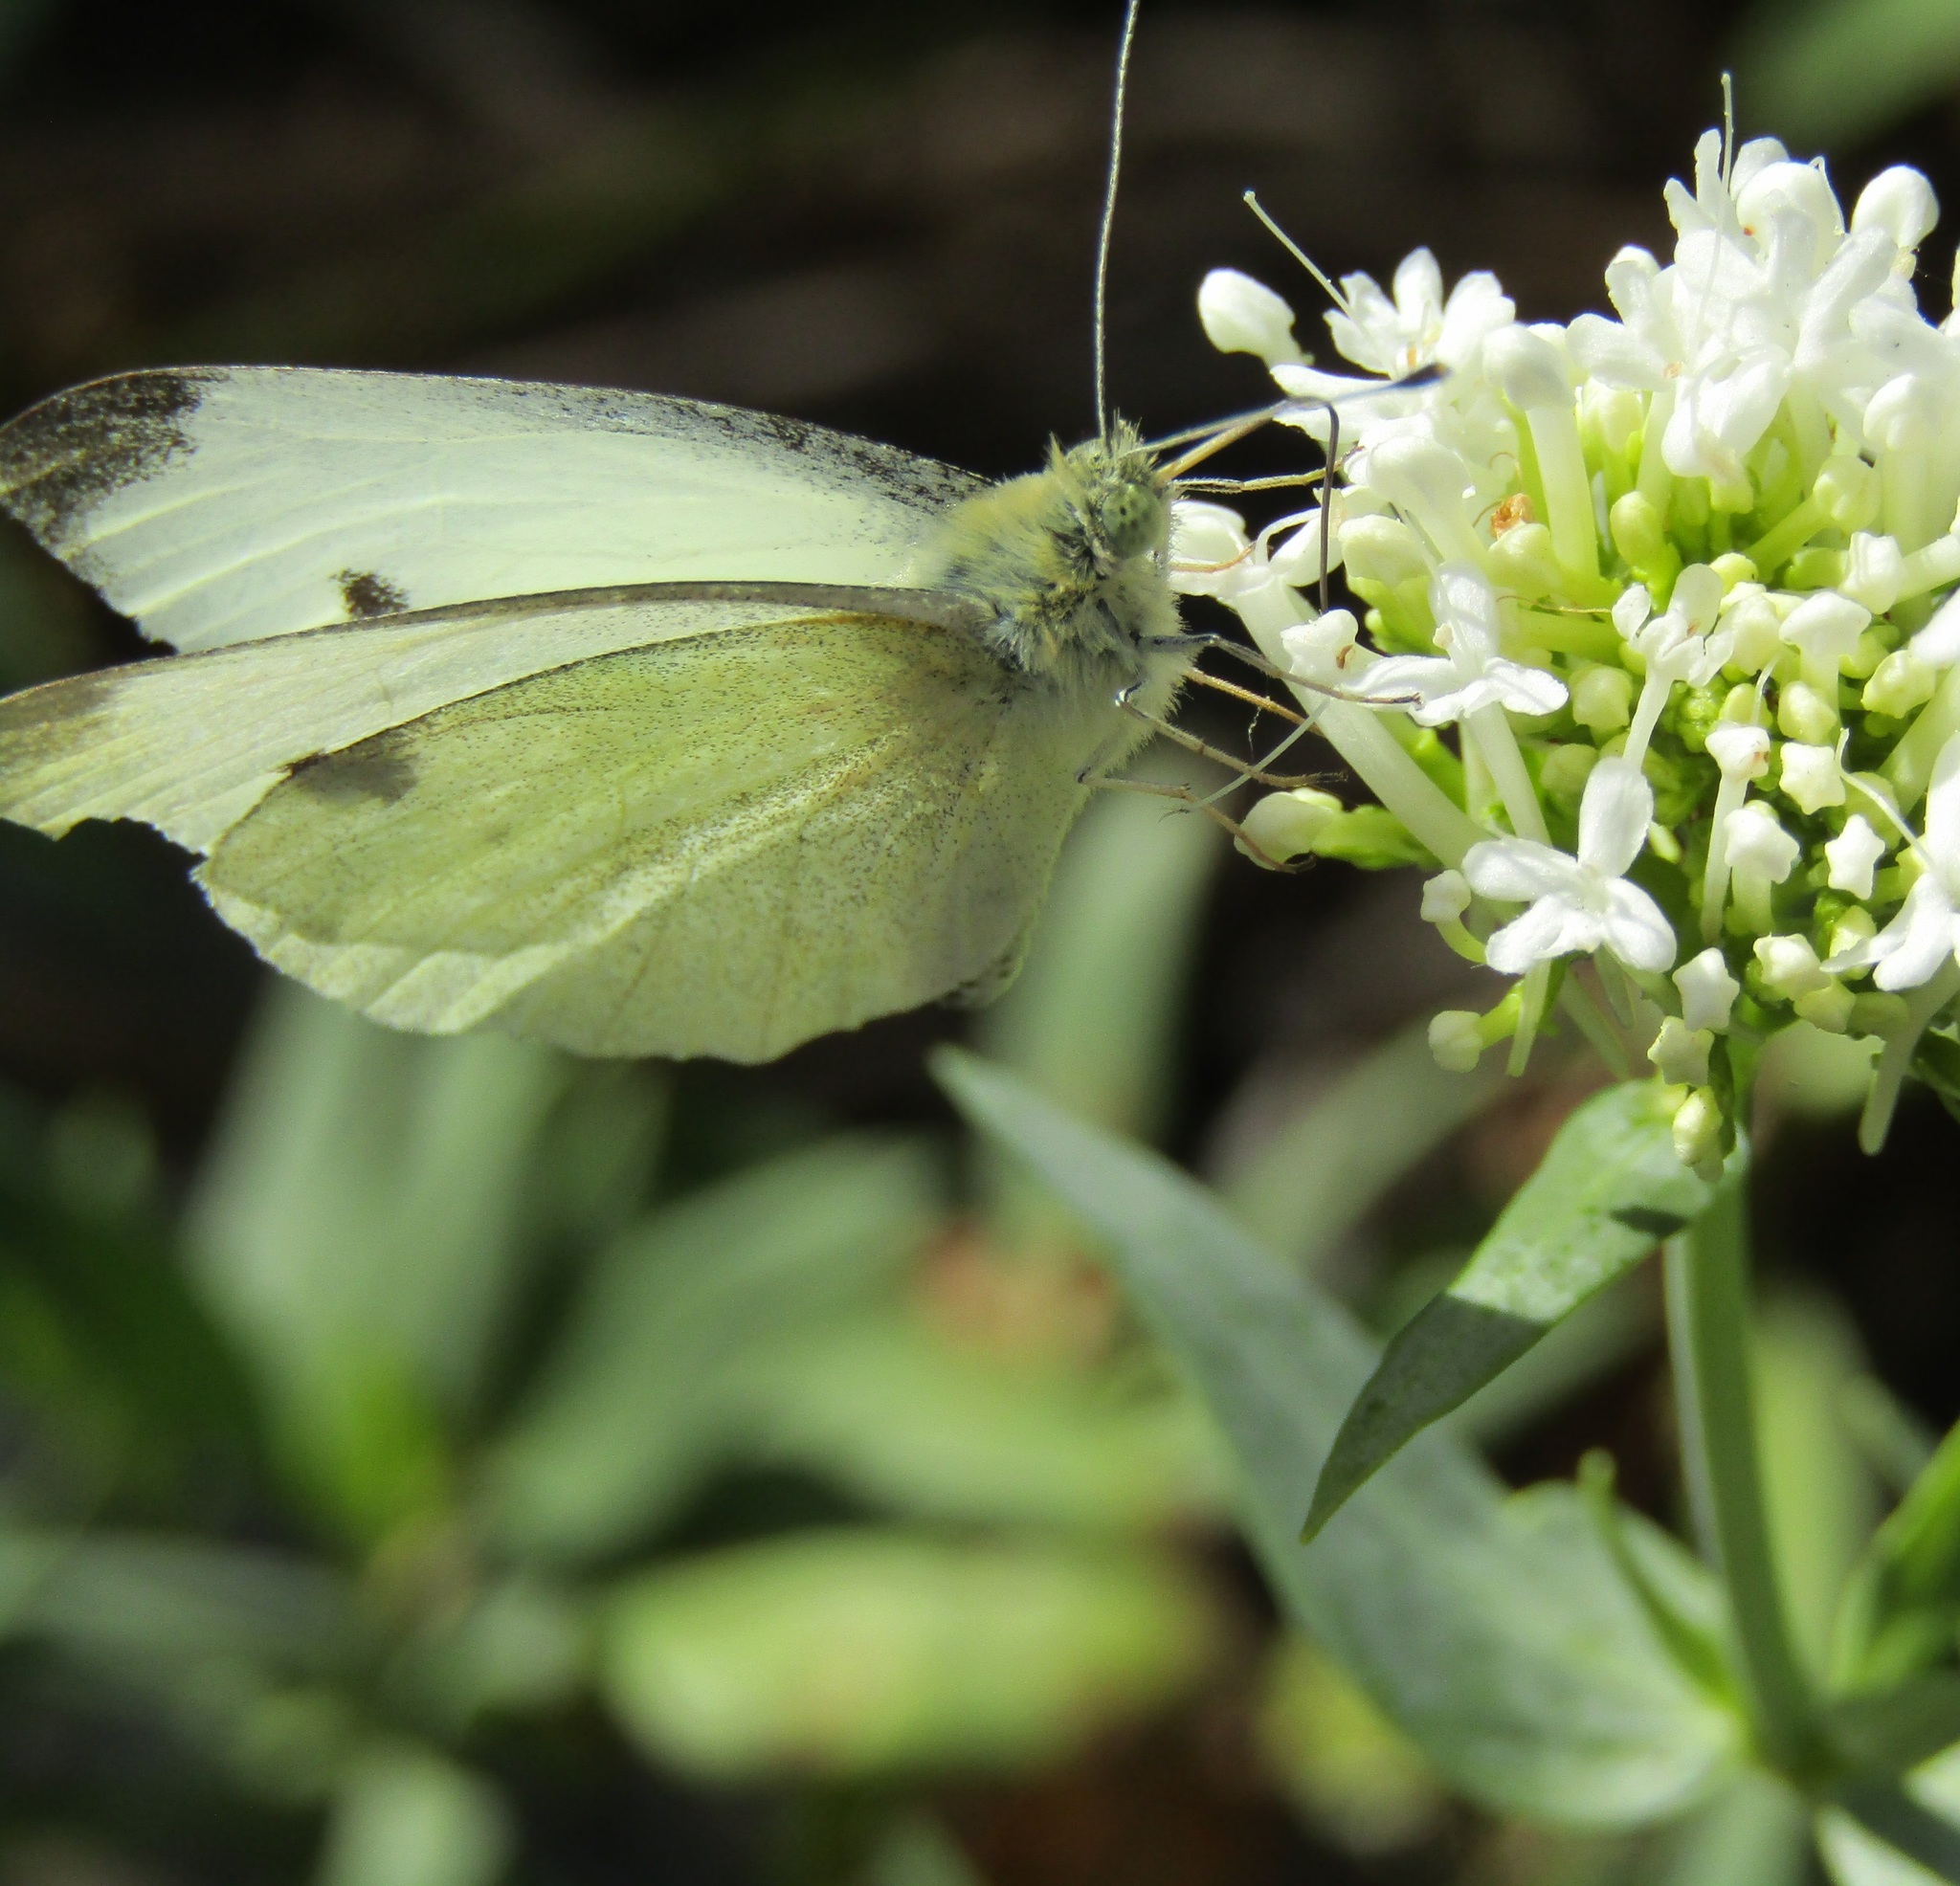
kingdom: Animalia
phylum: Arthropoda
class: Insecta
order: Lepidoptera
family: Pieridae
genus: Pieris
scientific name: Pieris rapae
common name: Small white
